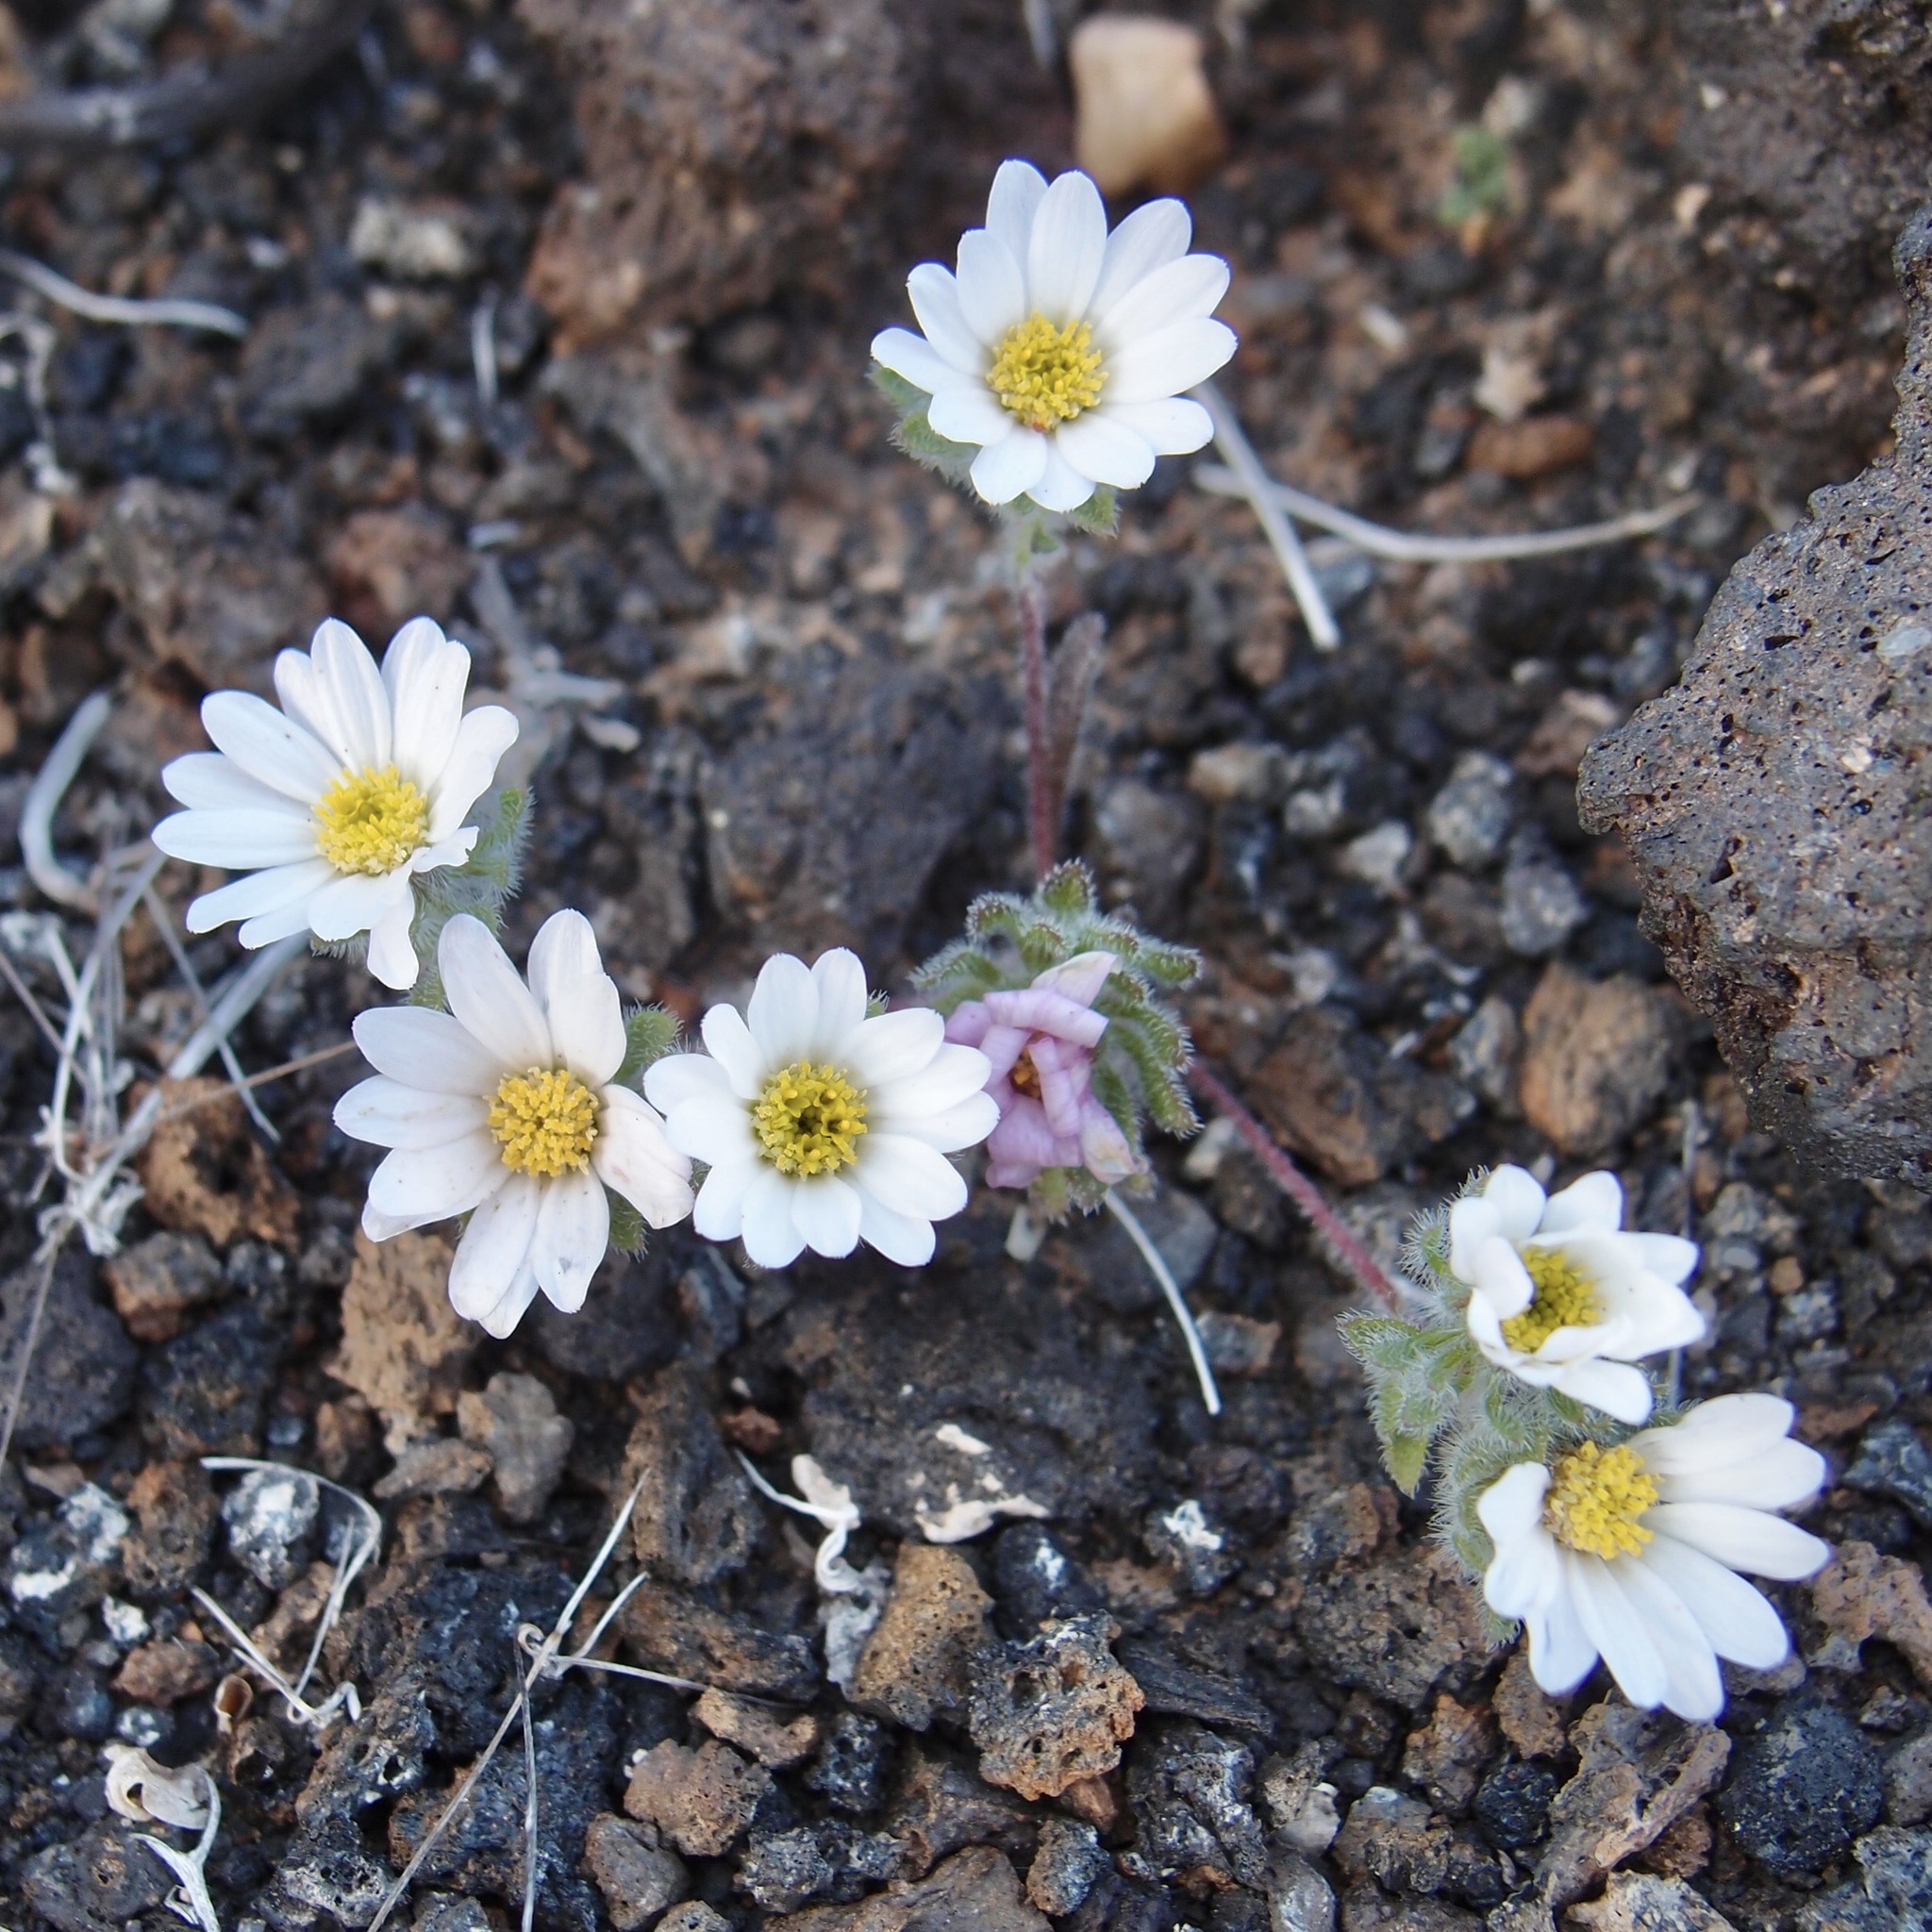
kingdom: Plantae
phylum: Tracheophyta
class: Magnoliopsida
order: Asterales
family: Asteraceae
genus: Monoptilon
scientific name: Monoptilon bellioides
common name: Bristly desertstar
